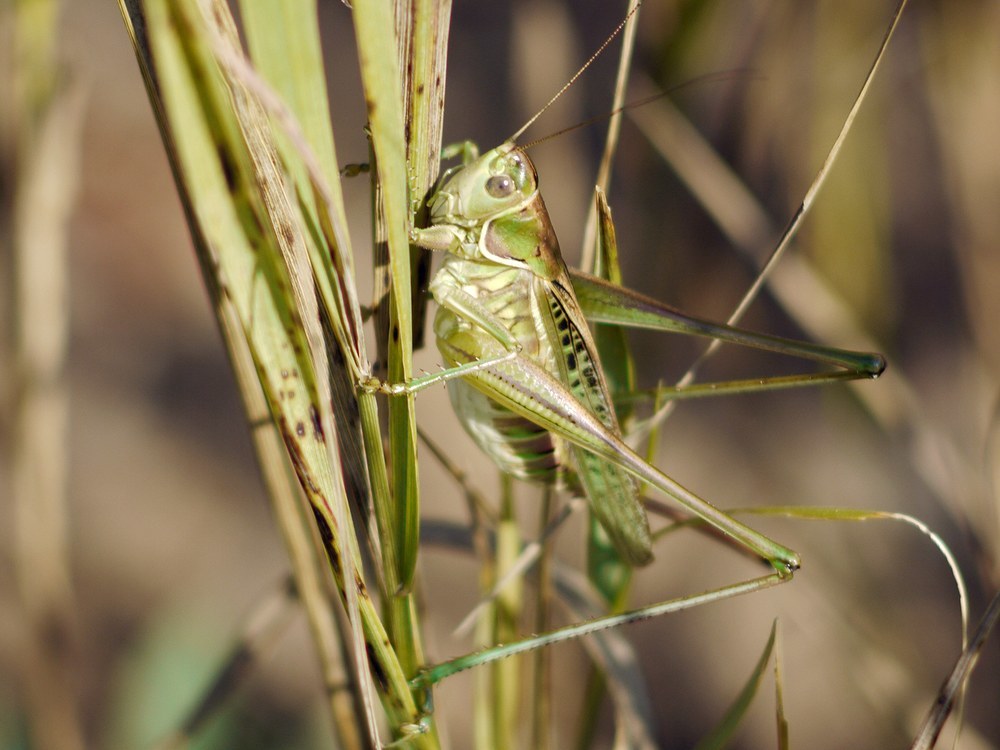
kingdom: Animalia
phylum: Arthropoda
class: Insecta
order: Orthoptera
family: Tettigoniidae
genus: Gampsocleis
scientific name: Gampsocleis glabra
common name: Heath bushcricket
